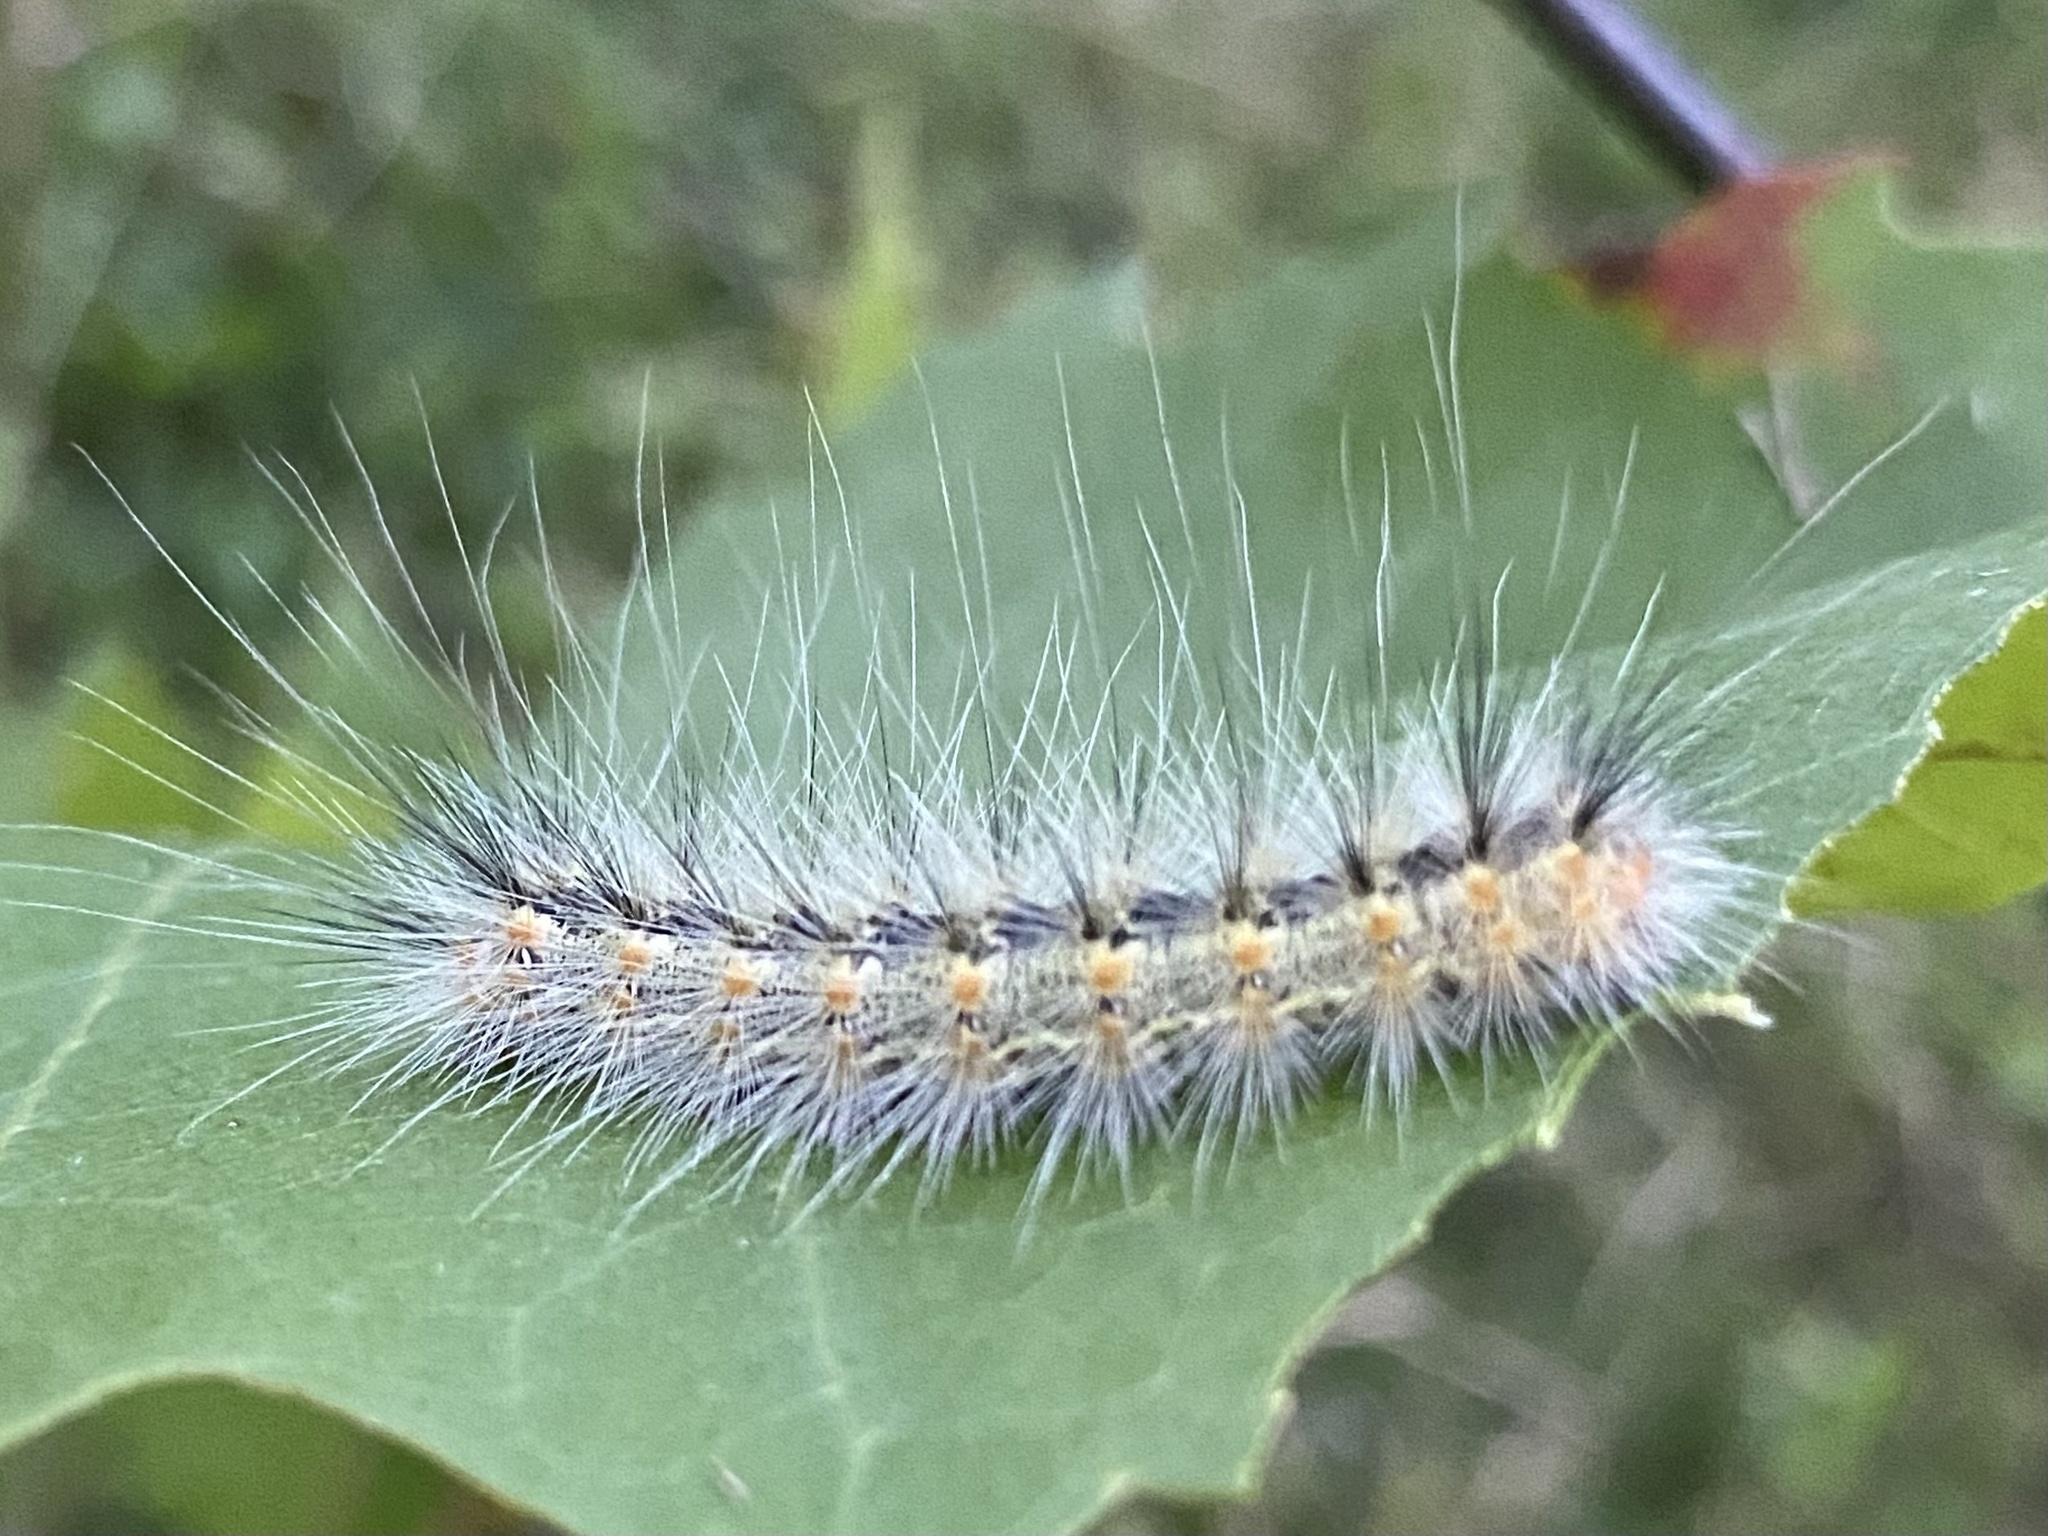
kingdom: Animalia
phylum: Arthropoda
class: Insecta
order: Lepidoptera
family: Erebidae
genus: Hyphantria
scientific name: Hyphantria cunea
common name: American white moth
